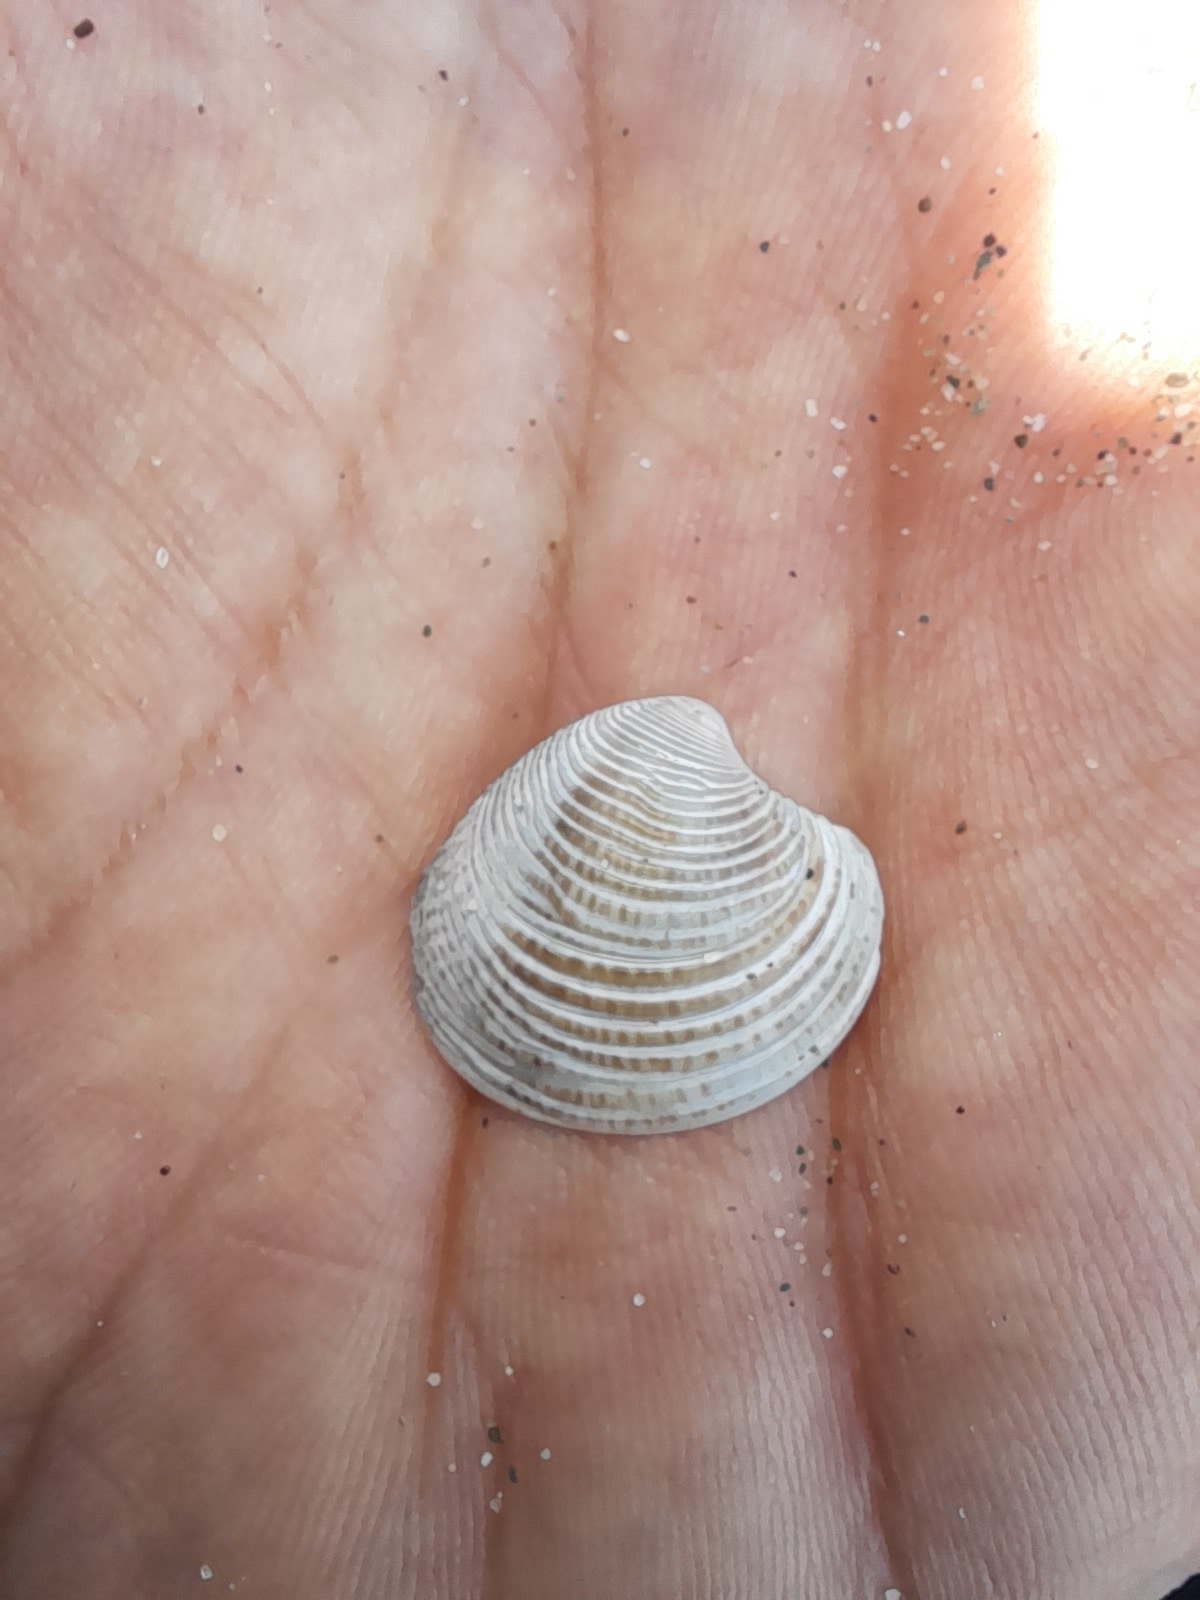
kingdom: Animalia
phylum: Mollusca
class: Bivalvia
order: Venerida
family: Veneridae
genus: Chamelea
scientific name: Chamelea gallina
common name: Chicken venus
